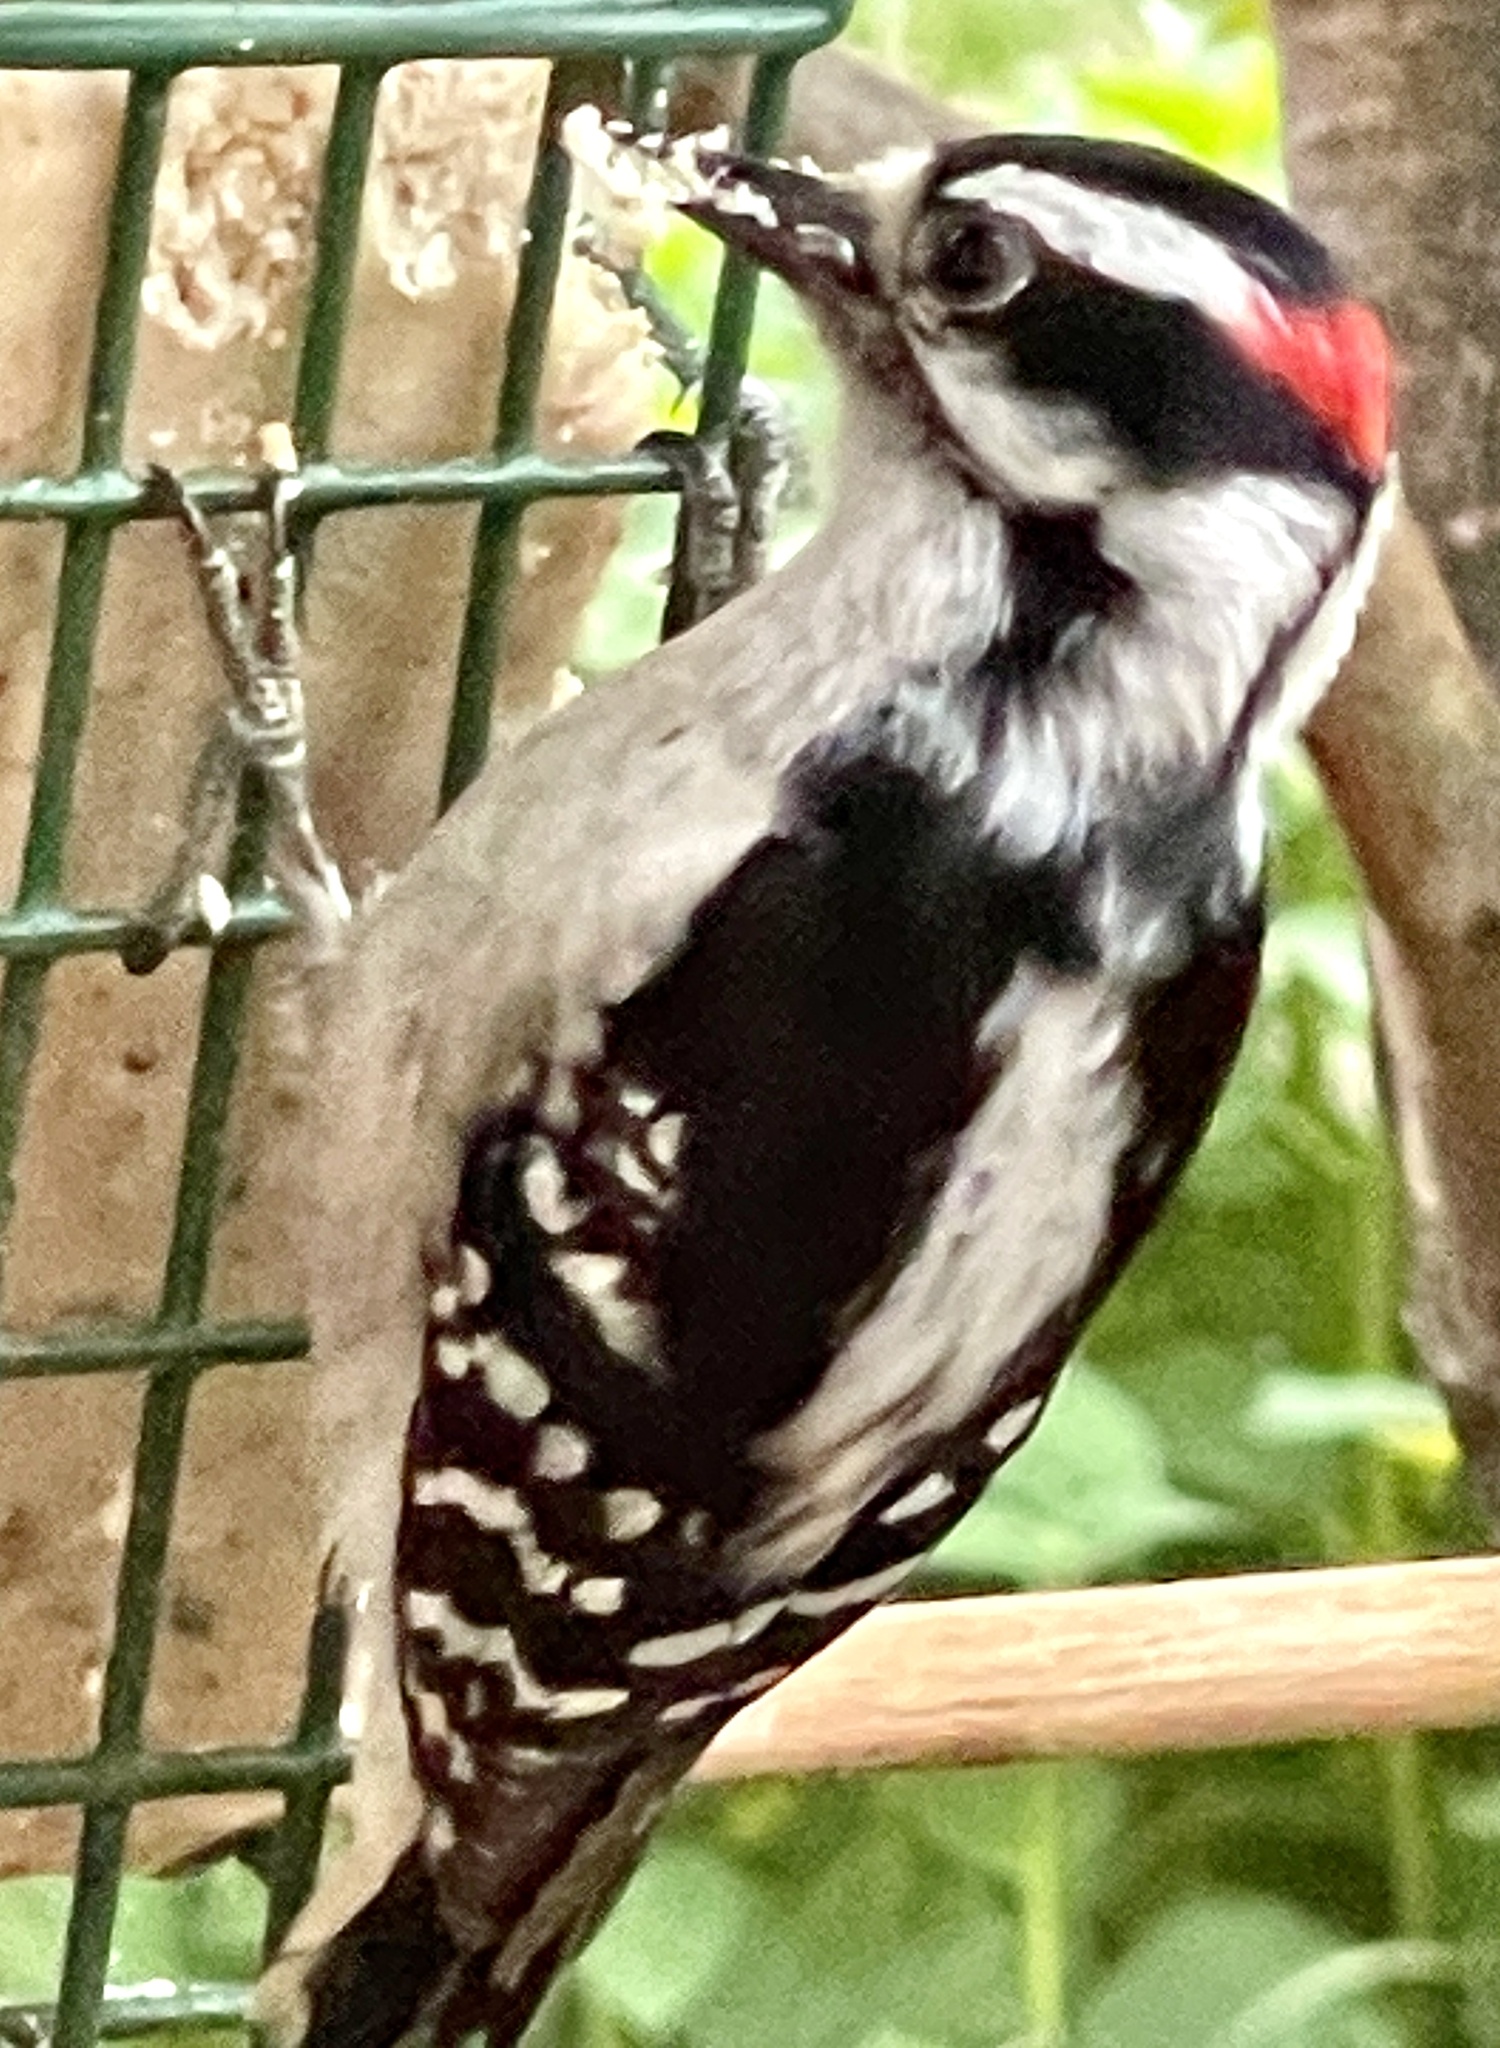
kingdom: Animalia
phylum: Chordata
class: Aves
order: Piciformes
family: Picidae
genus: Dryobates
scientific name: Dryobates pubescens
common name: Downy woodpecker
